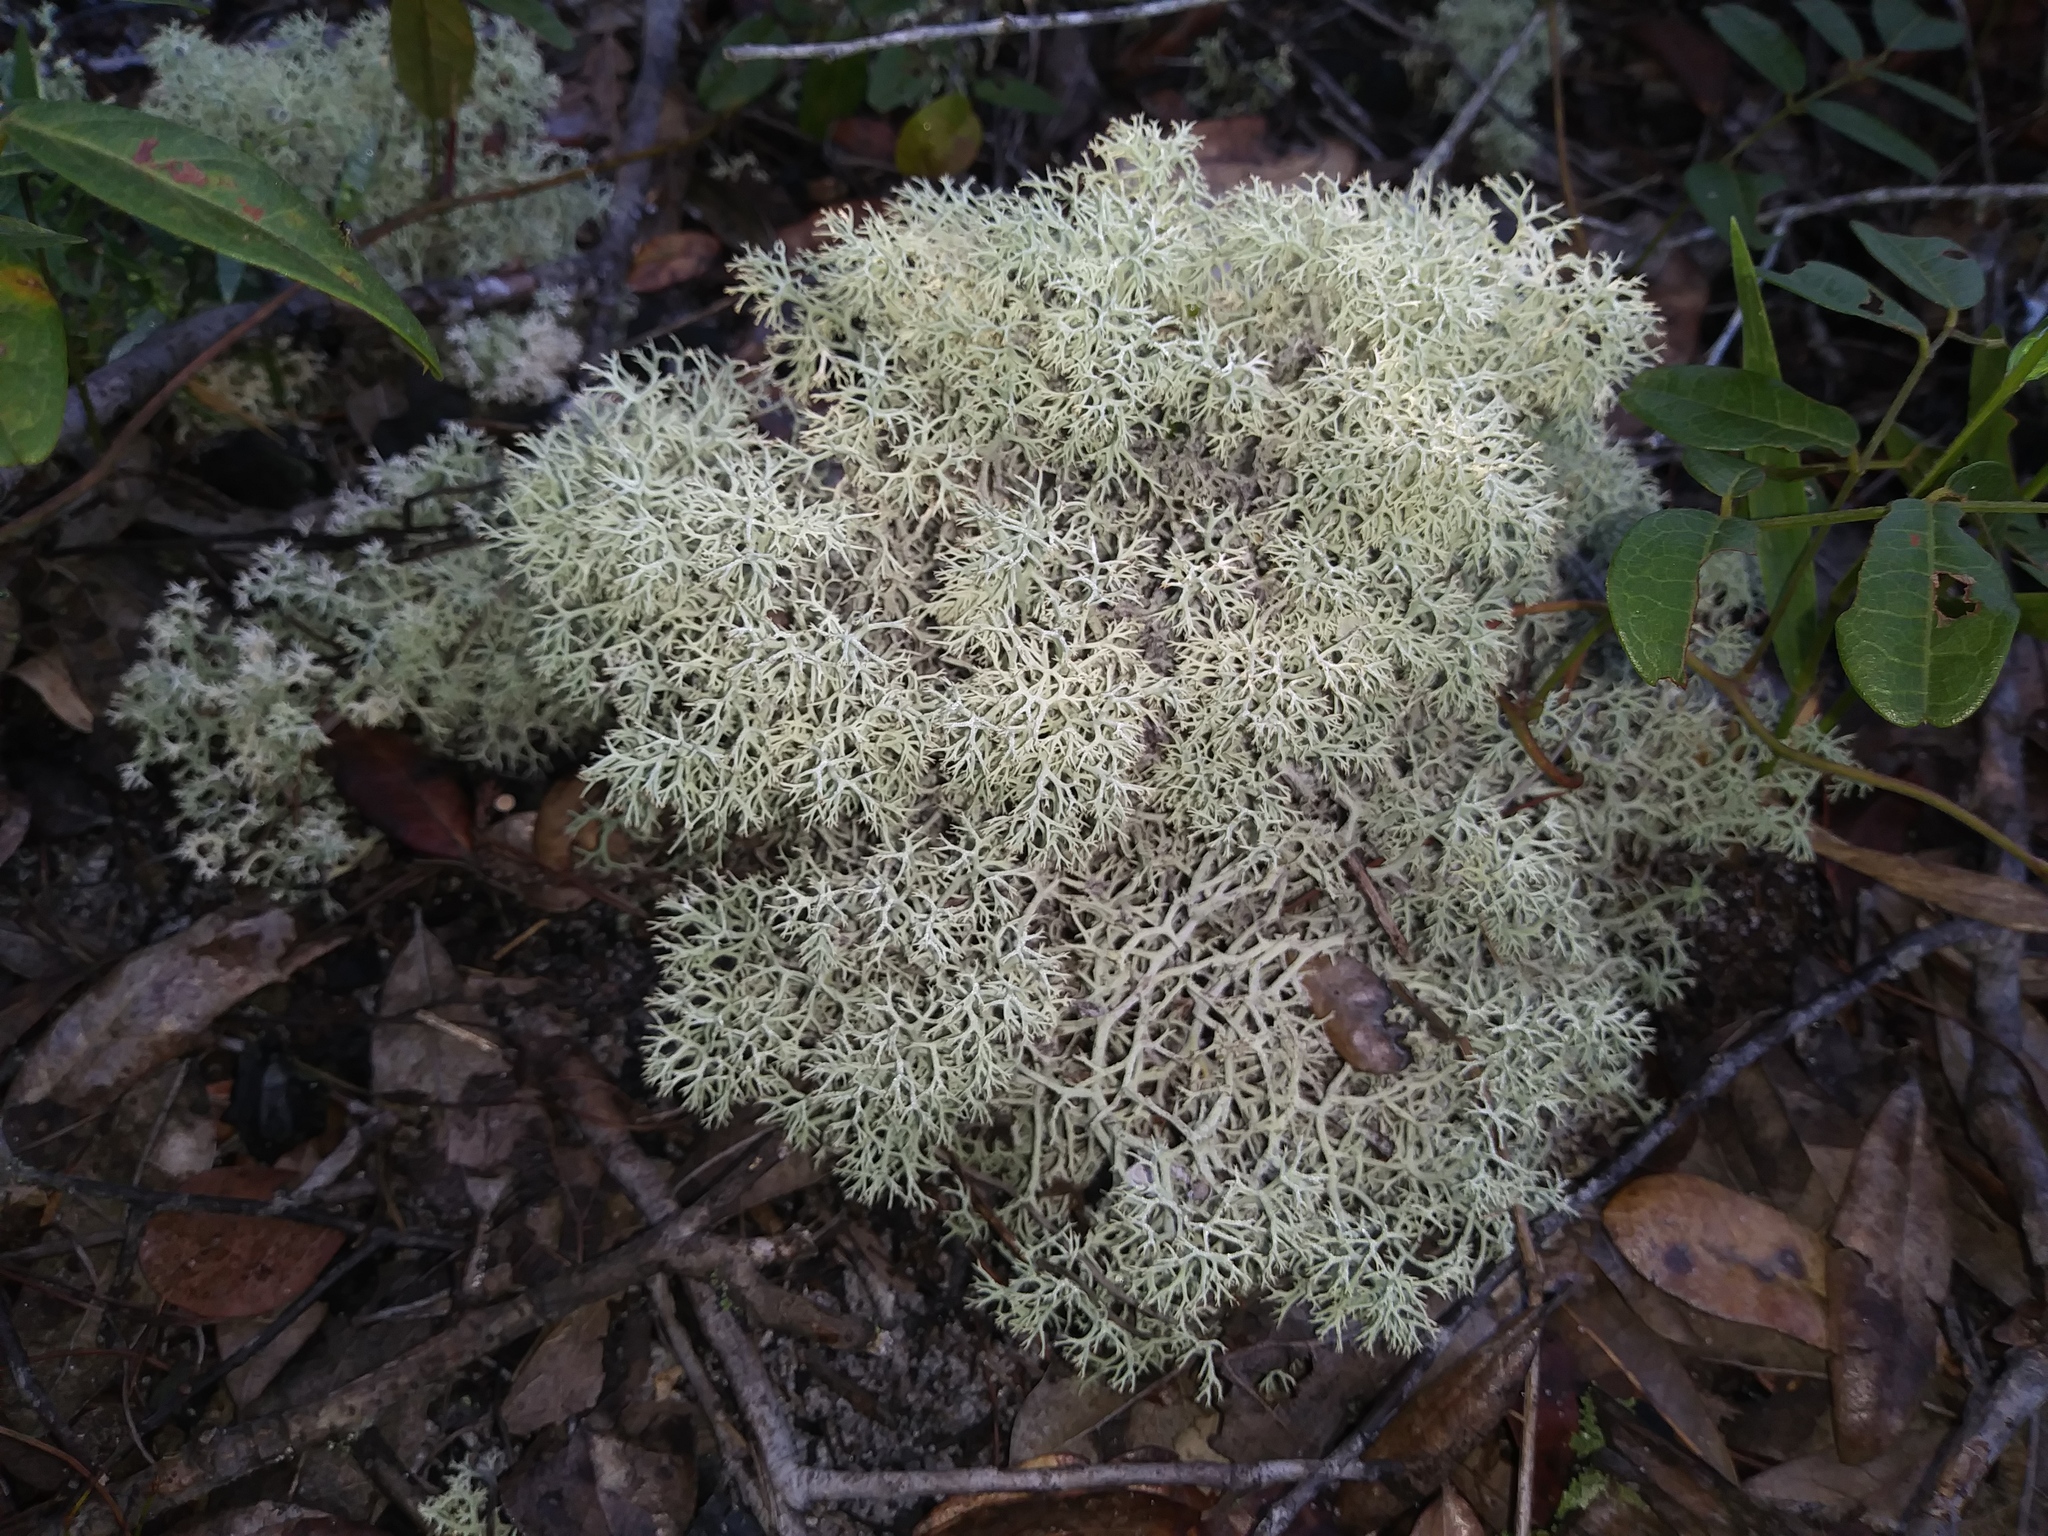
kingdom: Fungi
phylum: Ascomycota
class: Lecanoromycetes
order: Lecanorales
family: Cladoniaceae
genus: Cladonia
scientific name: Cladonia evansii
